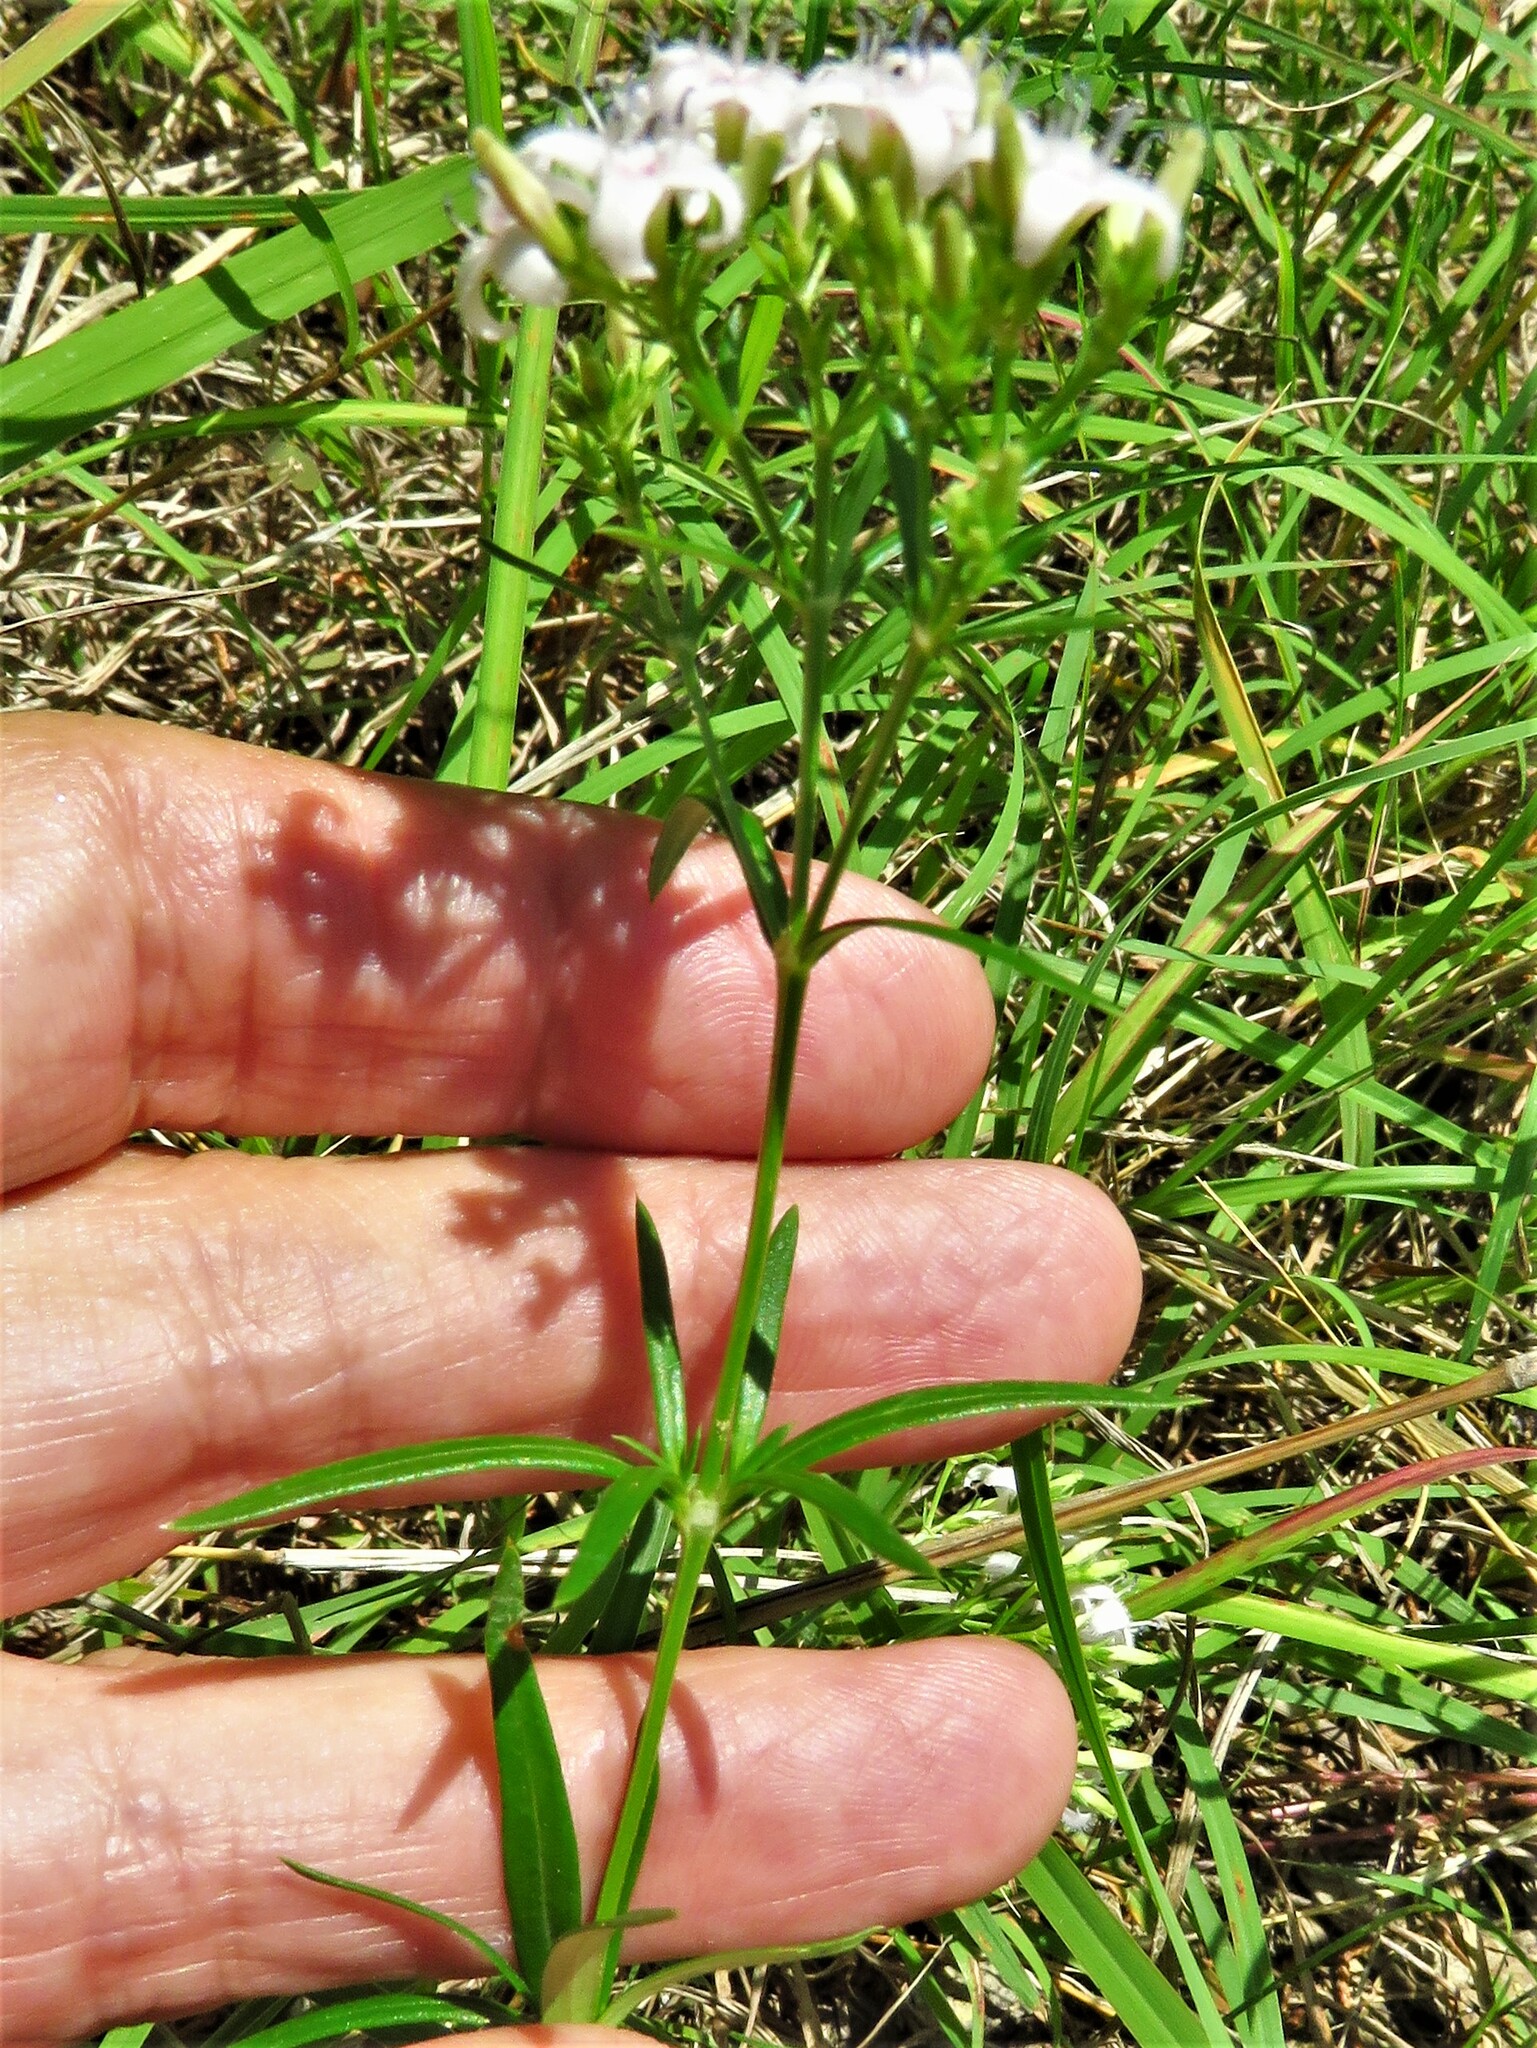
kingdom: Plantae
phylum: Tracheophyta
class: Magnoliopsida
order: Gentianales
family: Rubiaceae
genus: Stenaria
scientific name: Stenaria nigricans
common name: Diamondflowers
